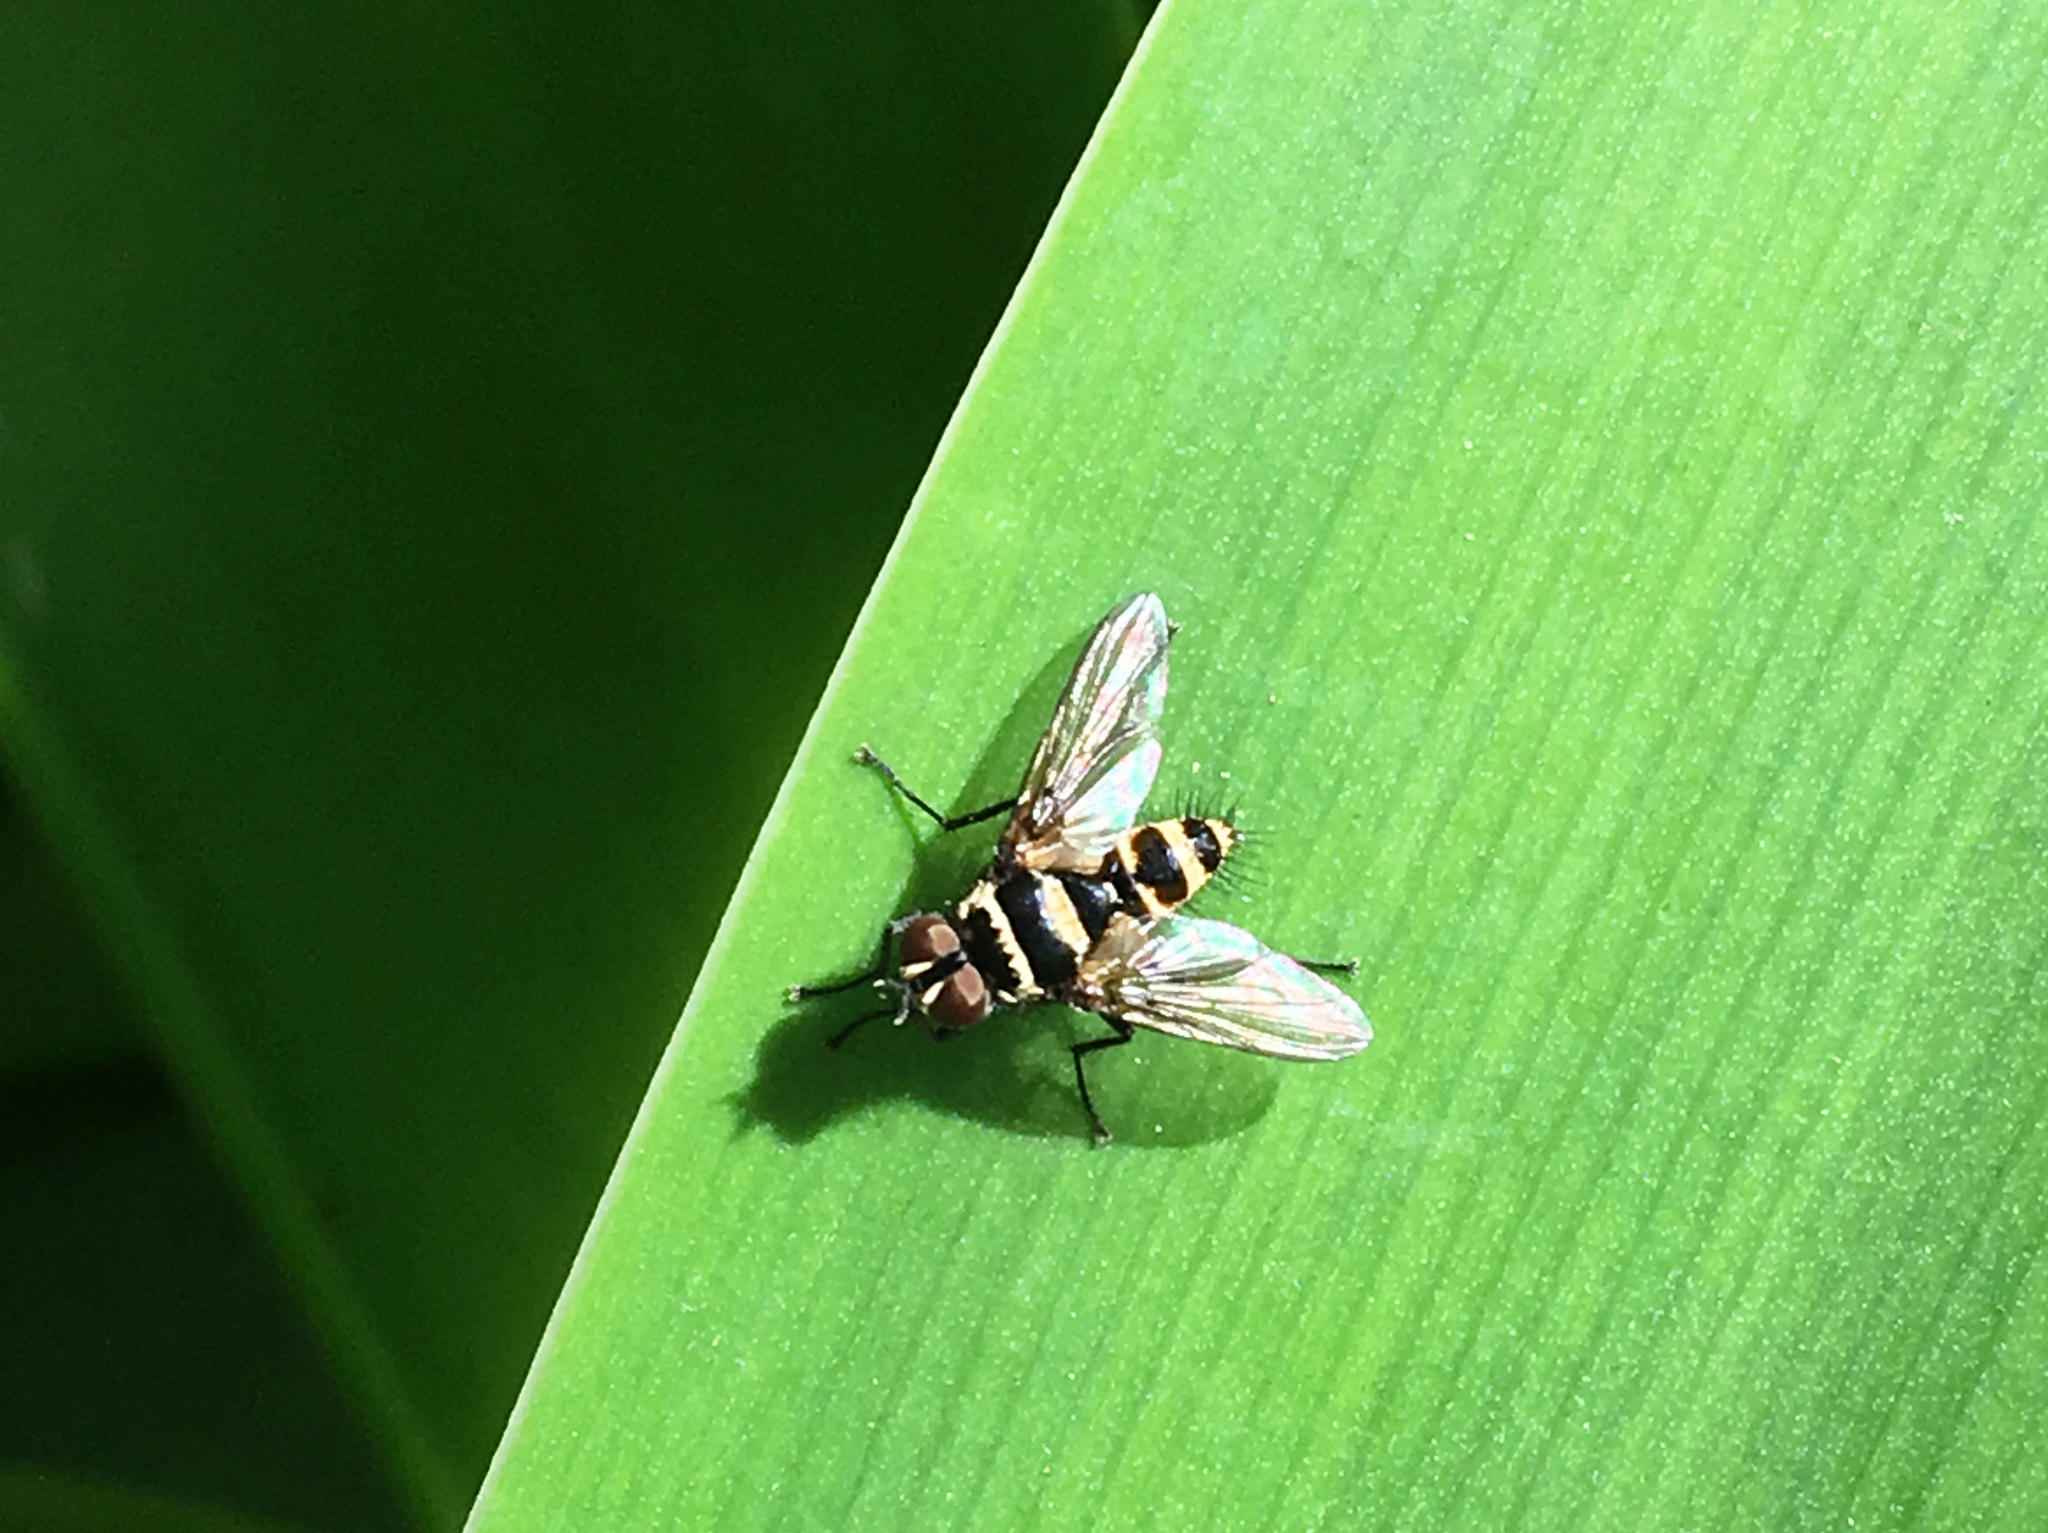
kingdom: Animalia
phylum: Arthropoda
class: Insecta
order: Diptera
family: Tachinidae
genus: Trigonospila
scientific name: Trigonospila brevifacies
